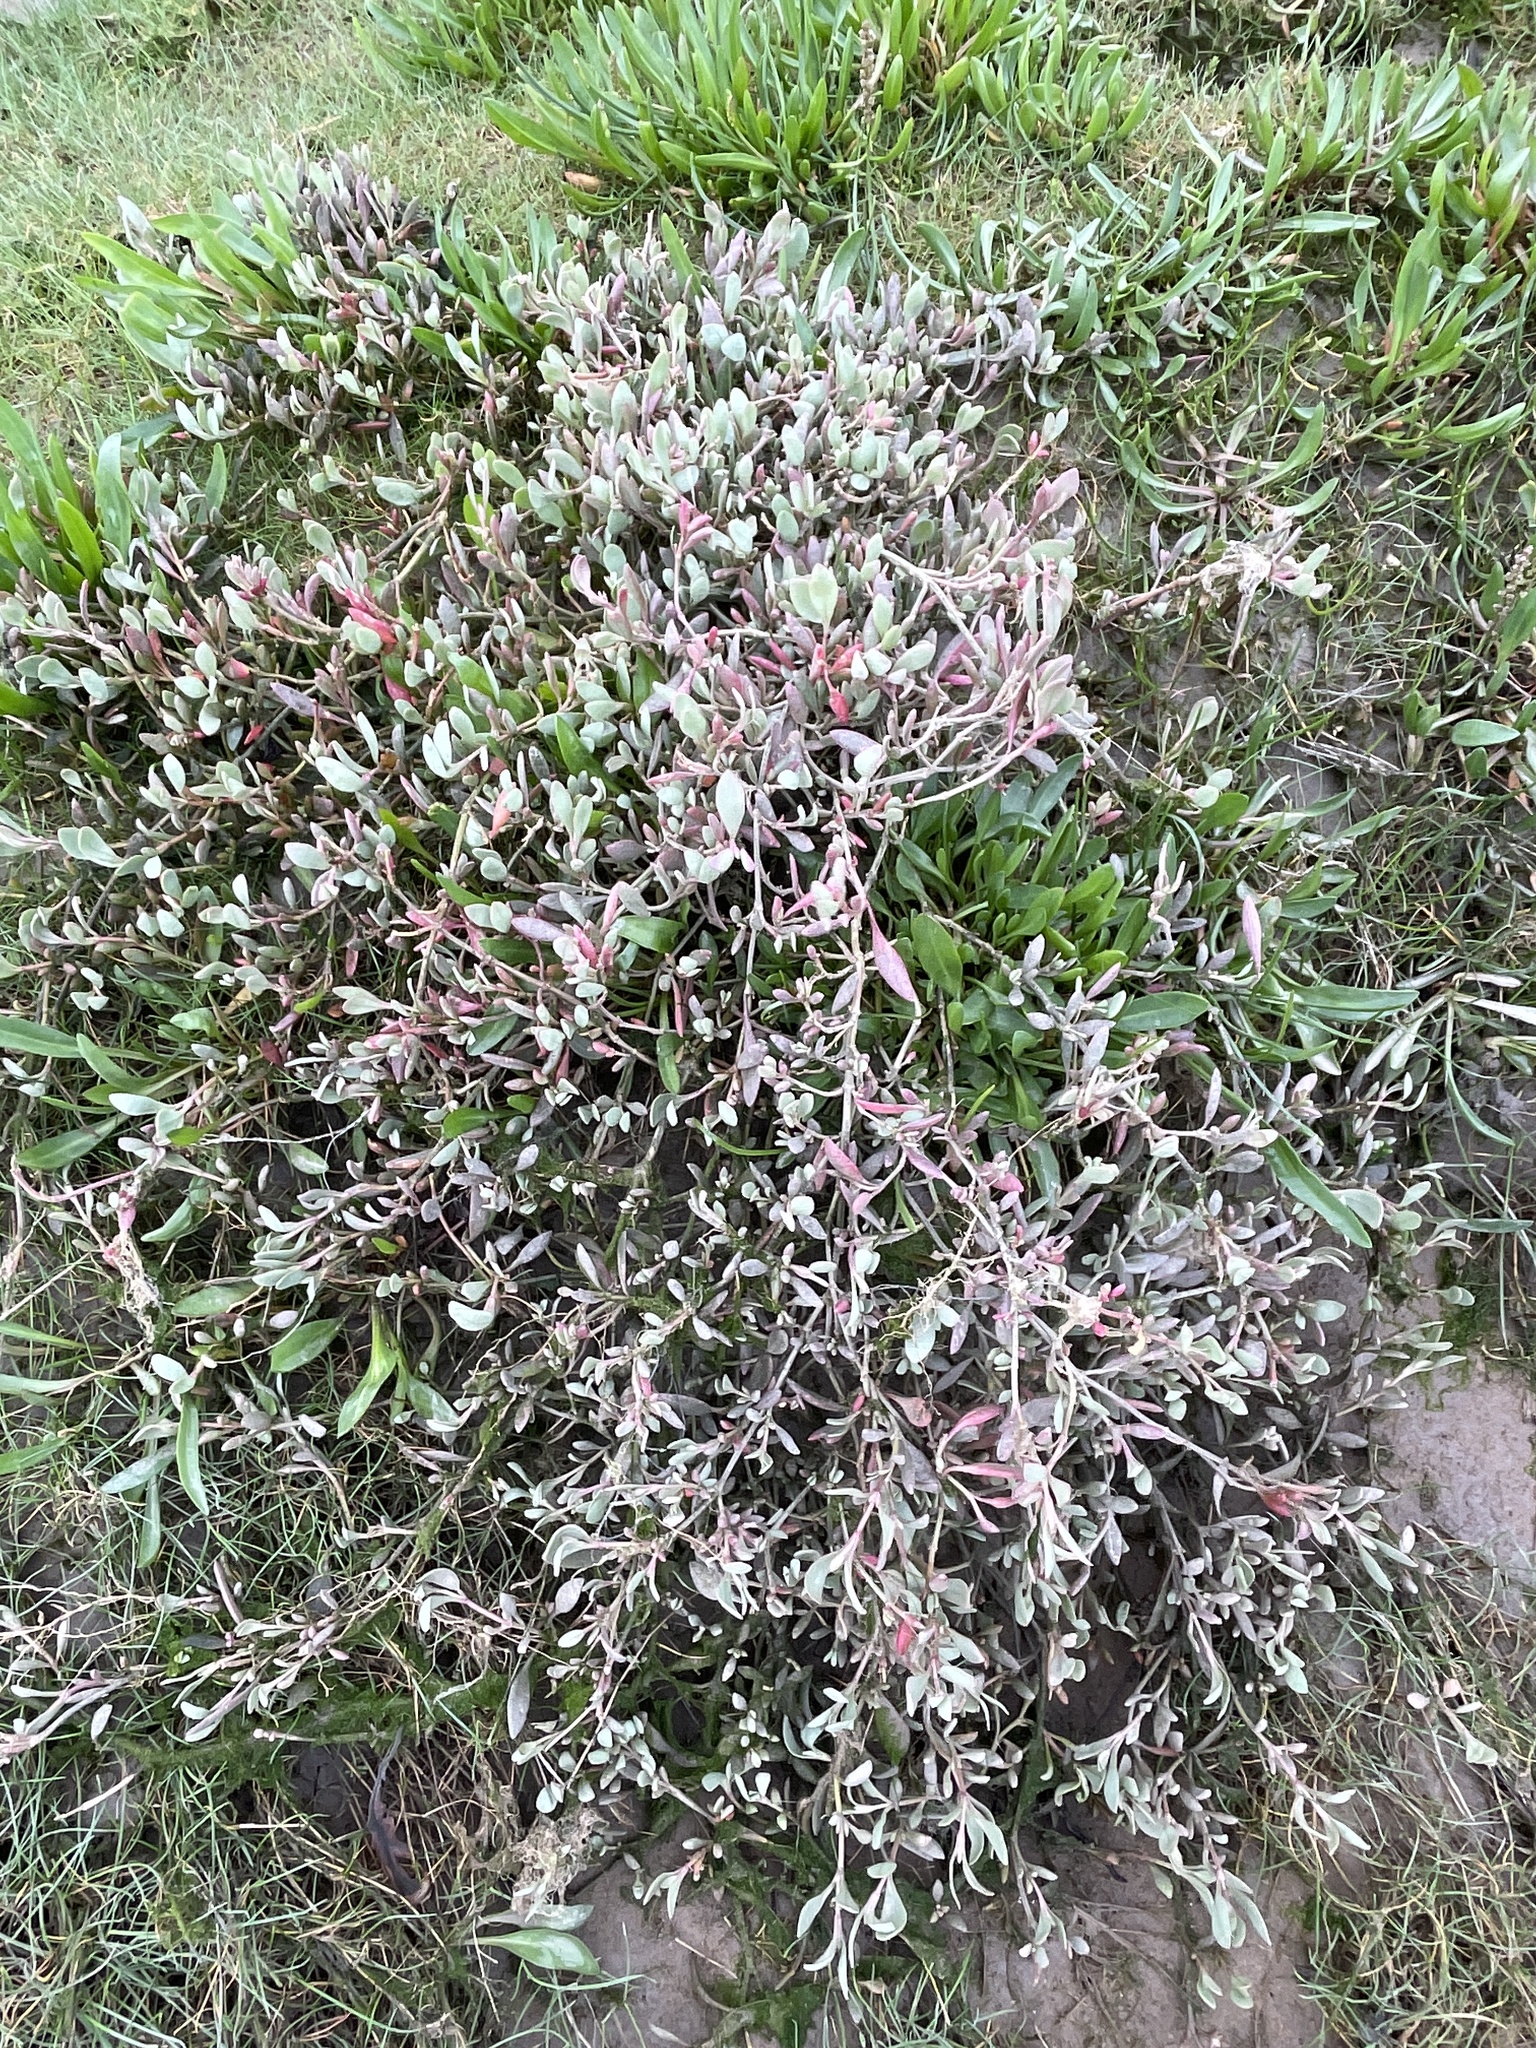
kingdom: Plantae
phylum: Tracheophyta
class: Magnoliopsida
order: Caryophyllales
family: Amaranthaceae
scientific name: Amaranthaceae
